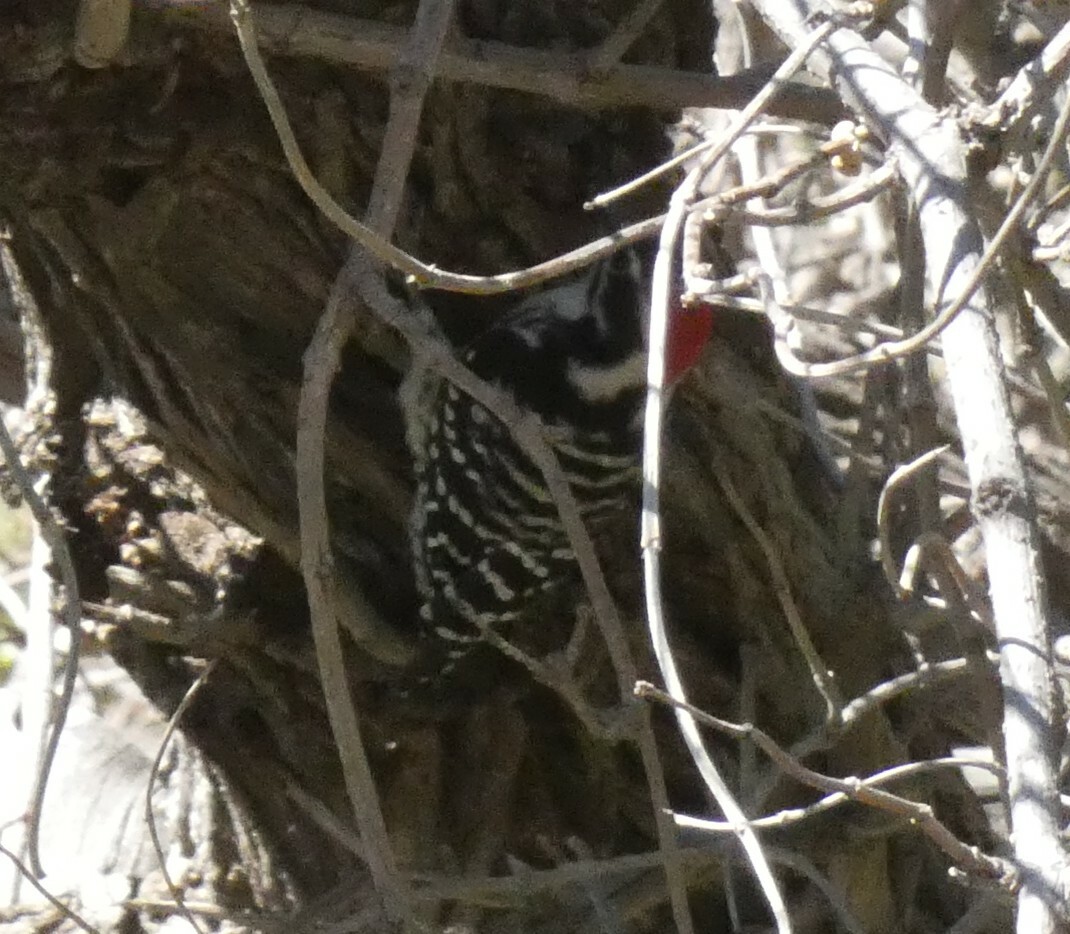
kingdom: Animalia
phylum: Chordata
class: Aves
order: Piciformes
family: Picidae
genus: Dryobates
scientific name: Dryobates nuttallii
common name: Nuttall's woodpecker
